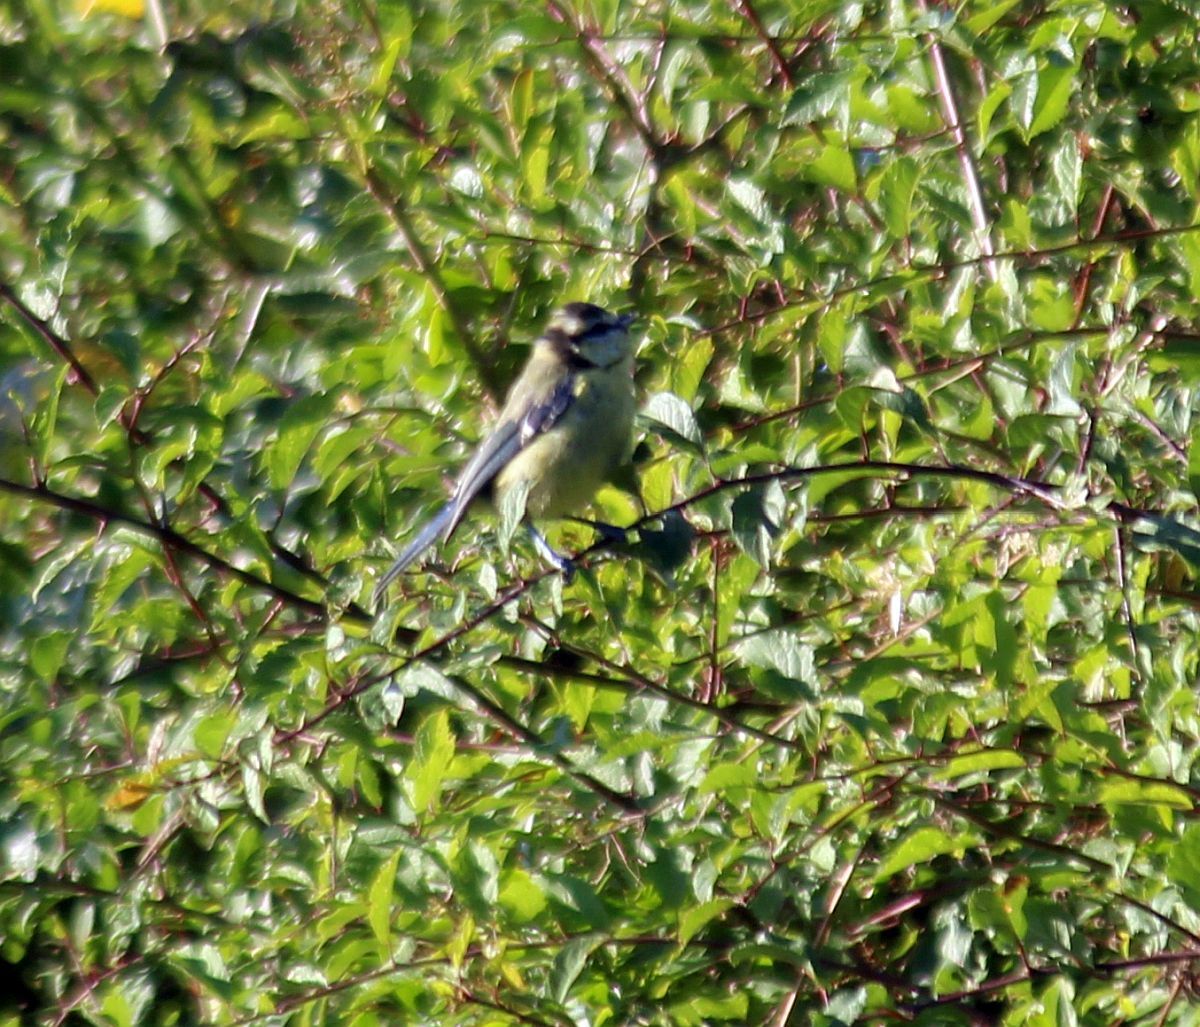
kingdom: Animalia
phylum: Chordata
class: Aves
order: Passeriformes
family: Paridae
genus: Cyanistes
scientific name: Cyanistes caeruleus
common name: Eurasian blue tit
